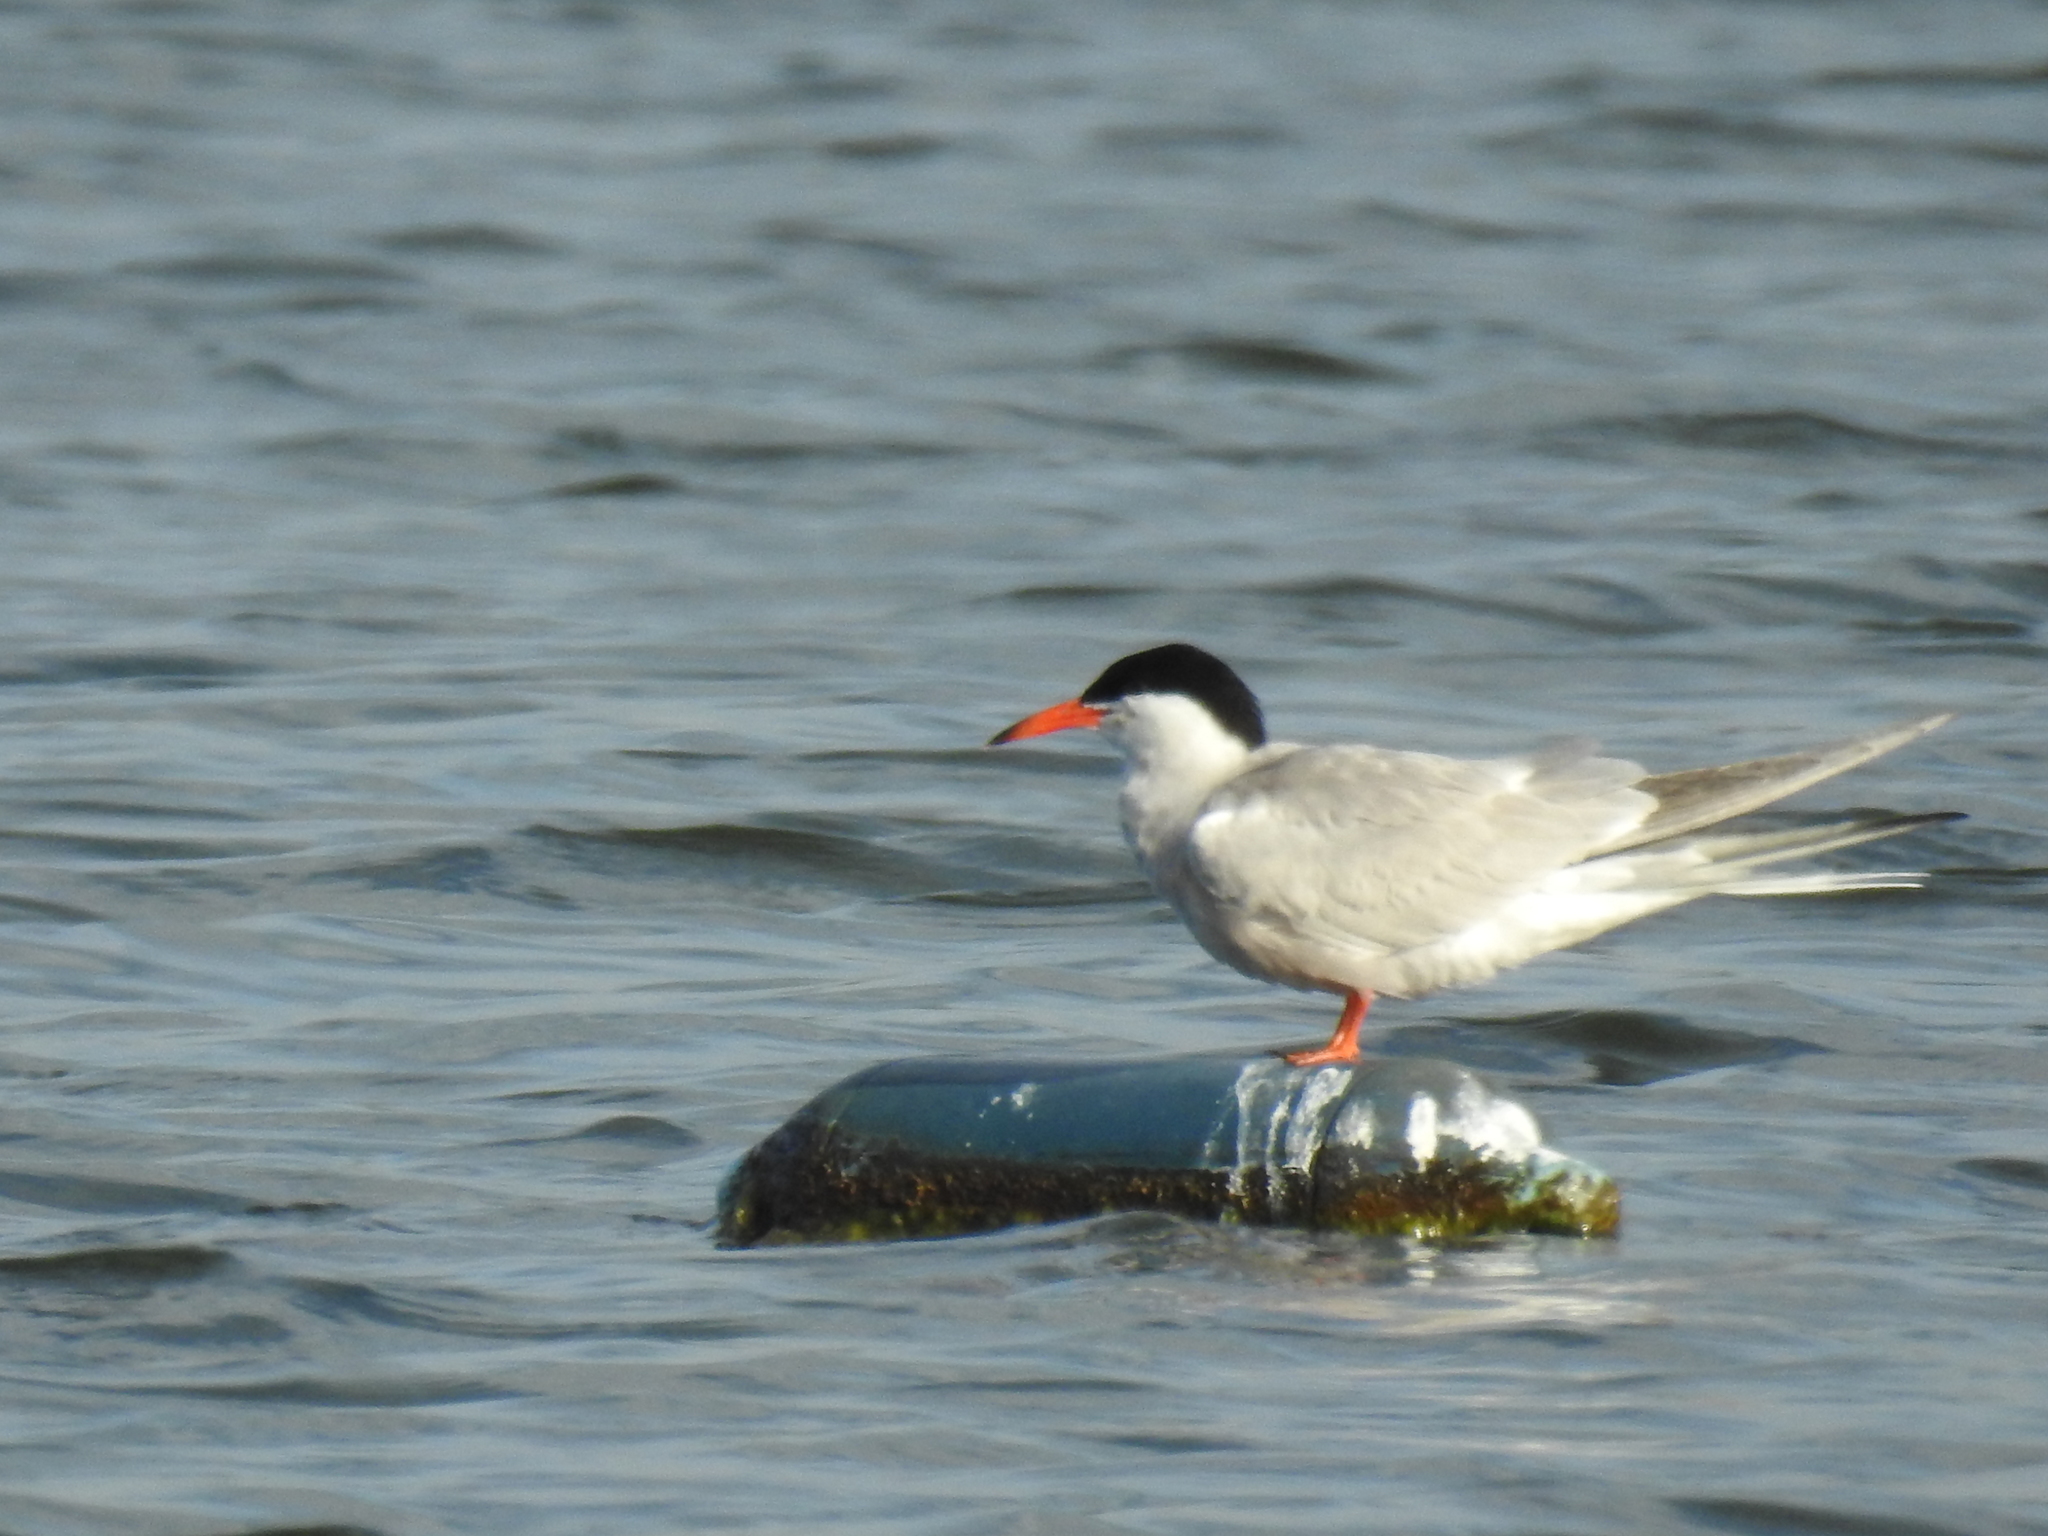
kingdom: Animalia
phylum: Chordata
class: Aves
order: Charadriiformes
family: Laridae
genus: Sterna
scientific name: Sterna hirundo
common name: Common tern
